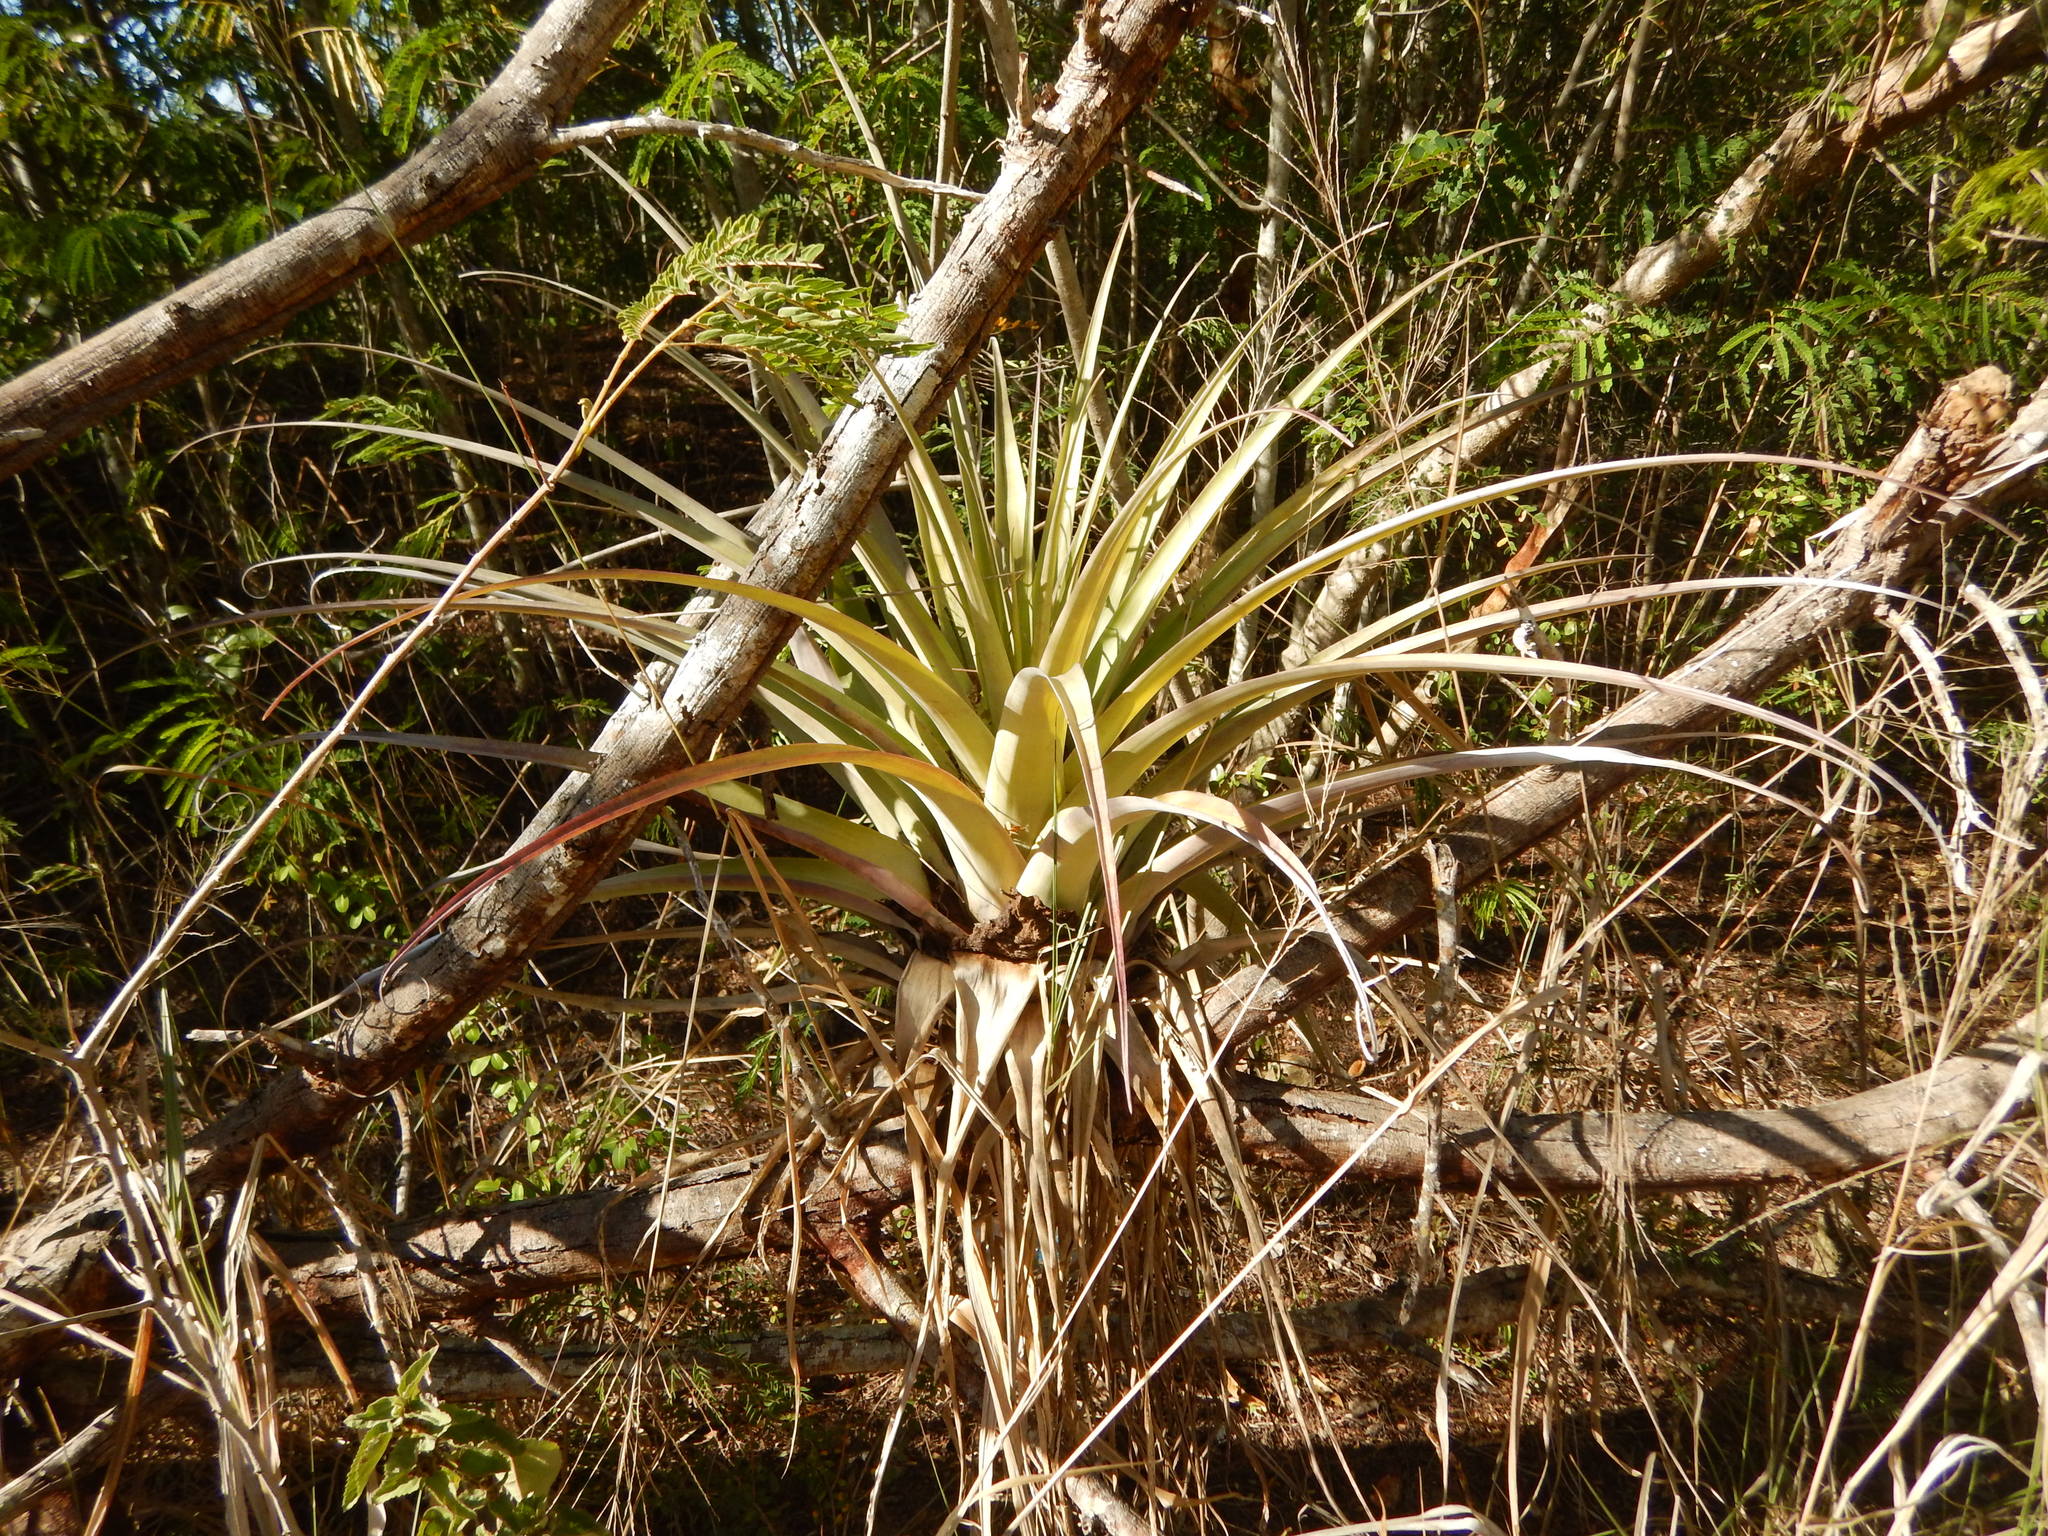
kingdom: Plantae
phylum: Tracheophyta
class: Liliopsida
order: Poales
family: Bromeliaceae
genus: Tillandsia
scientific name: Tillandsia utriculata
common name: Wild pine
